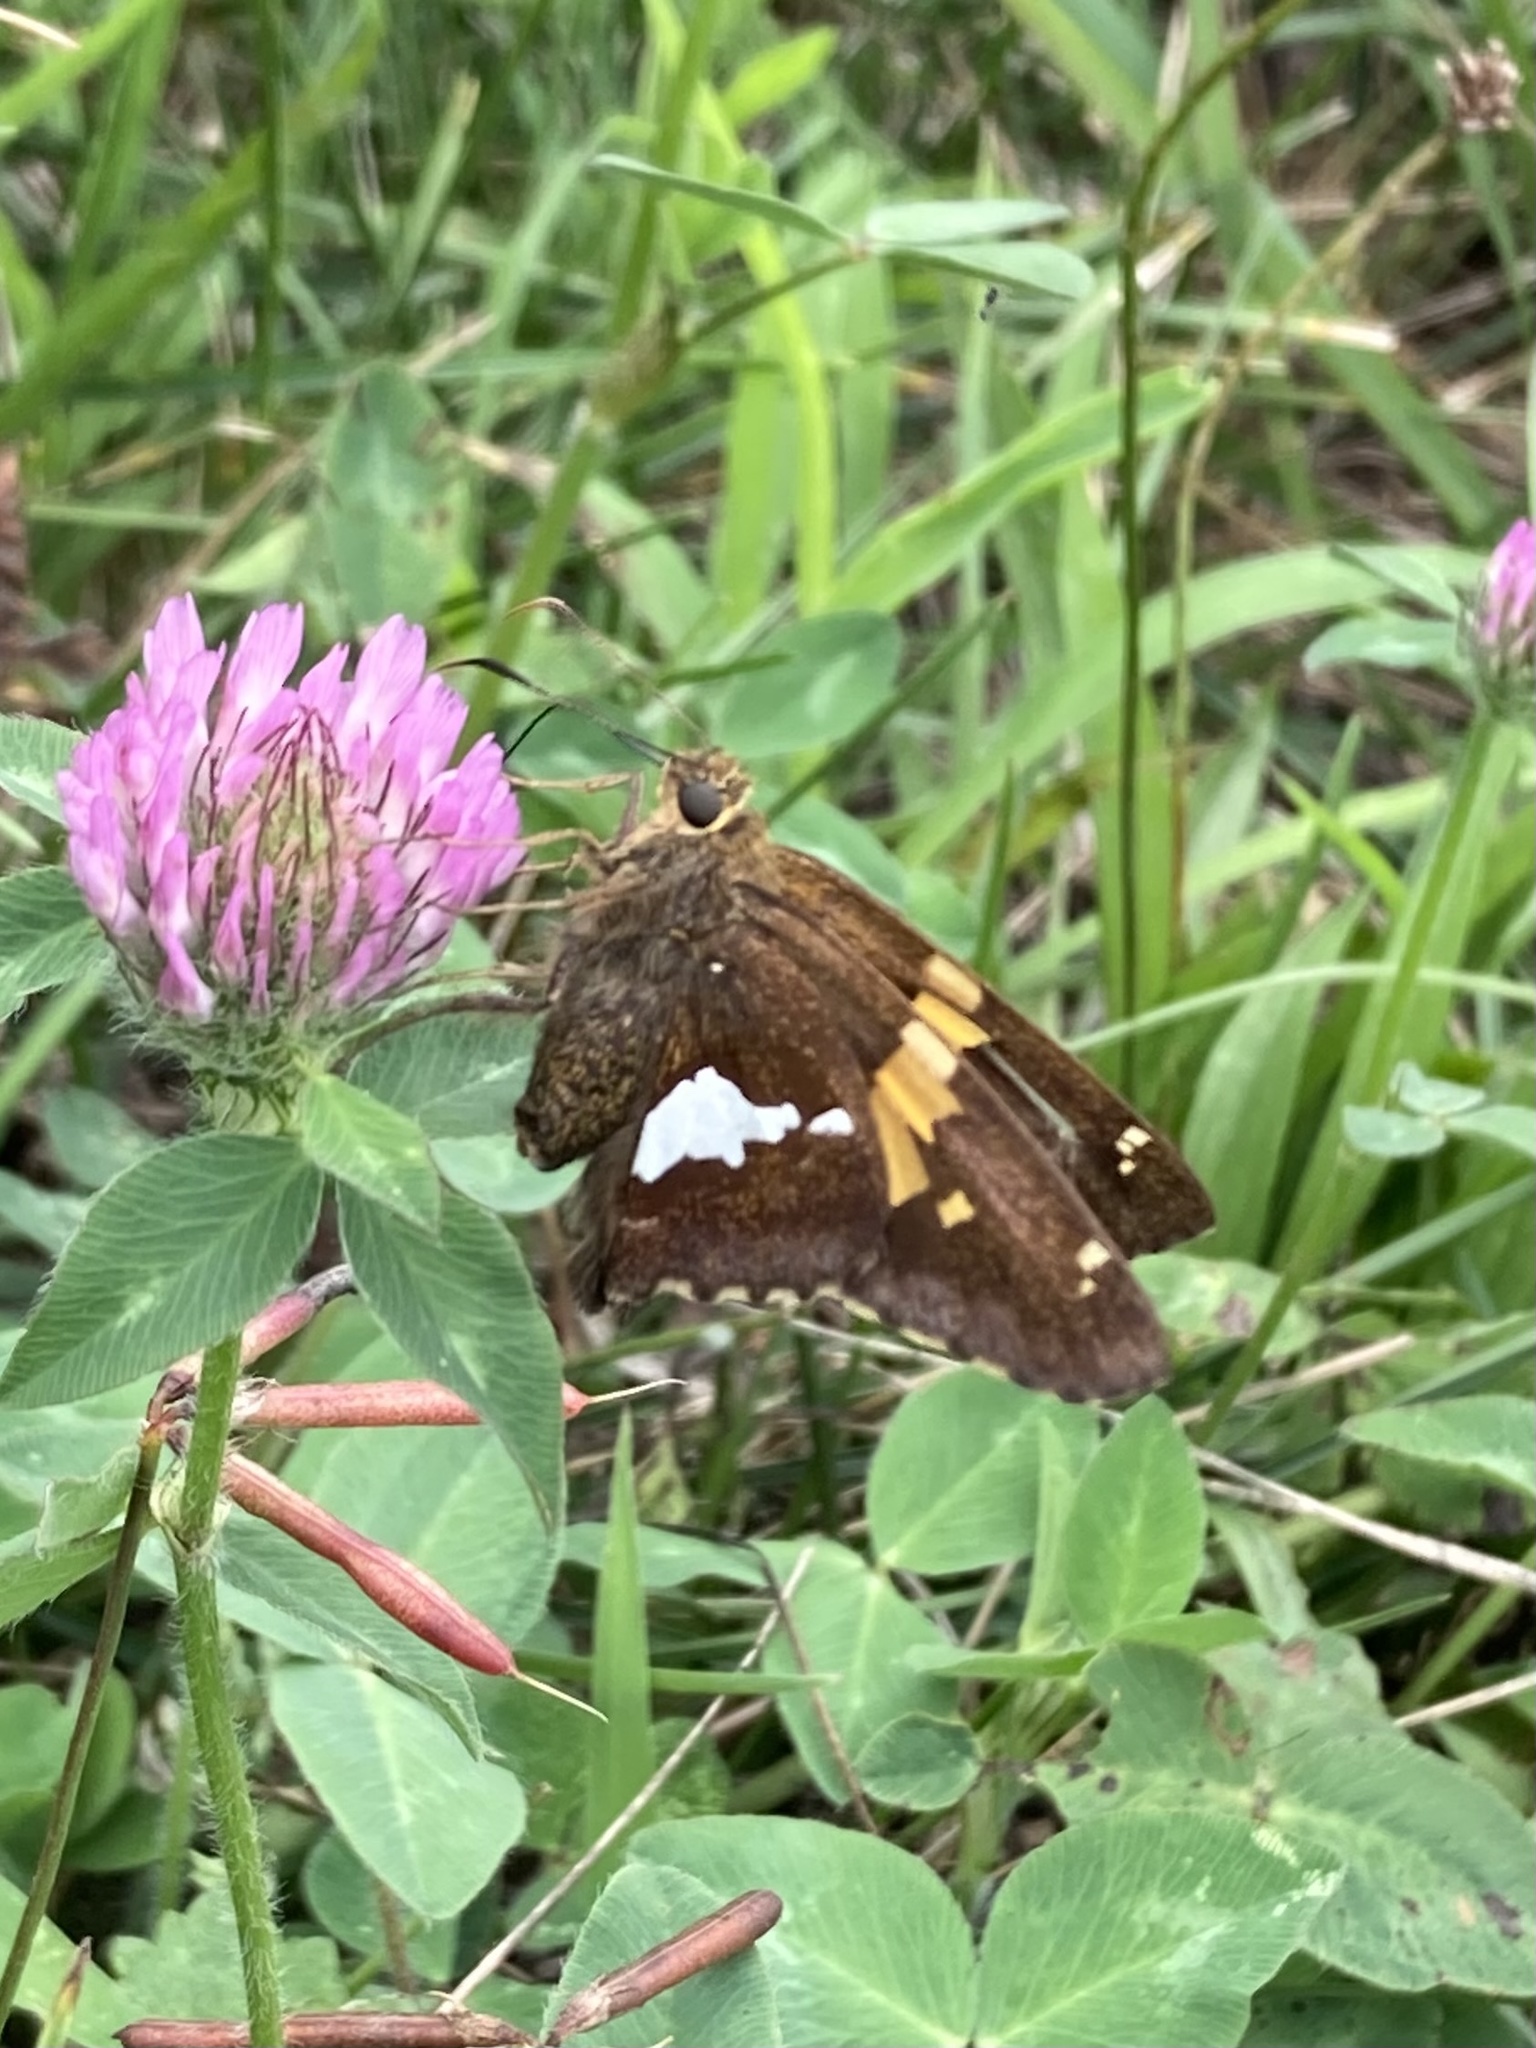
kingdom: Animalia
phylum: Arthropoda
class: Insecta
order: Lepidoptera
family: Hesperiidae
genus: Epargyreus
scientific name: Epargyreus clarus
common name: Silver-spotted skipper
